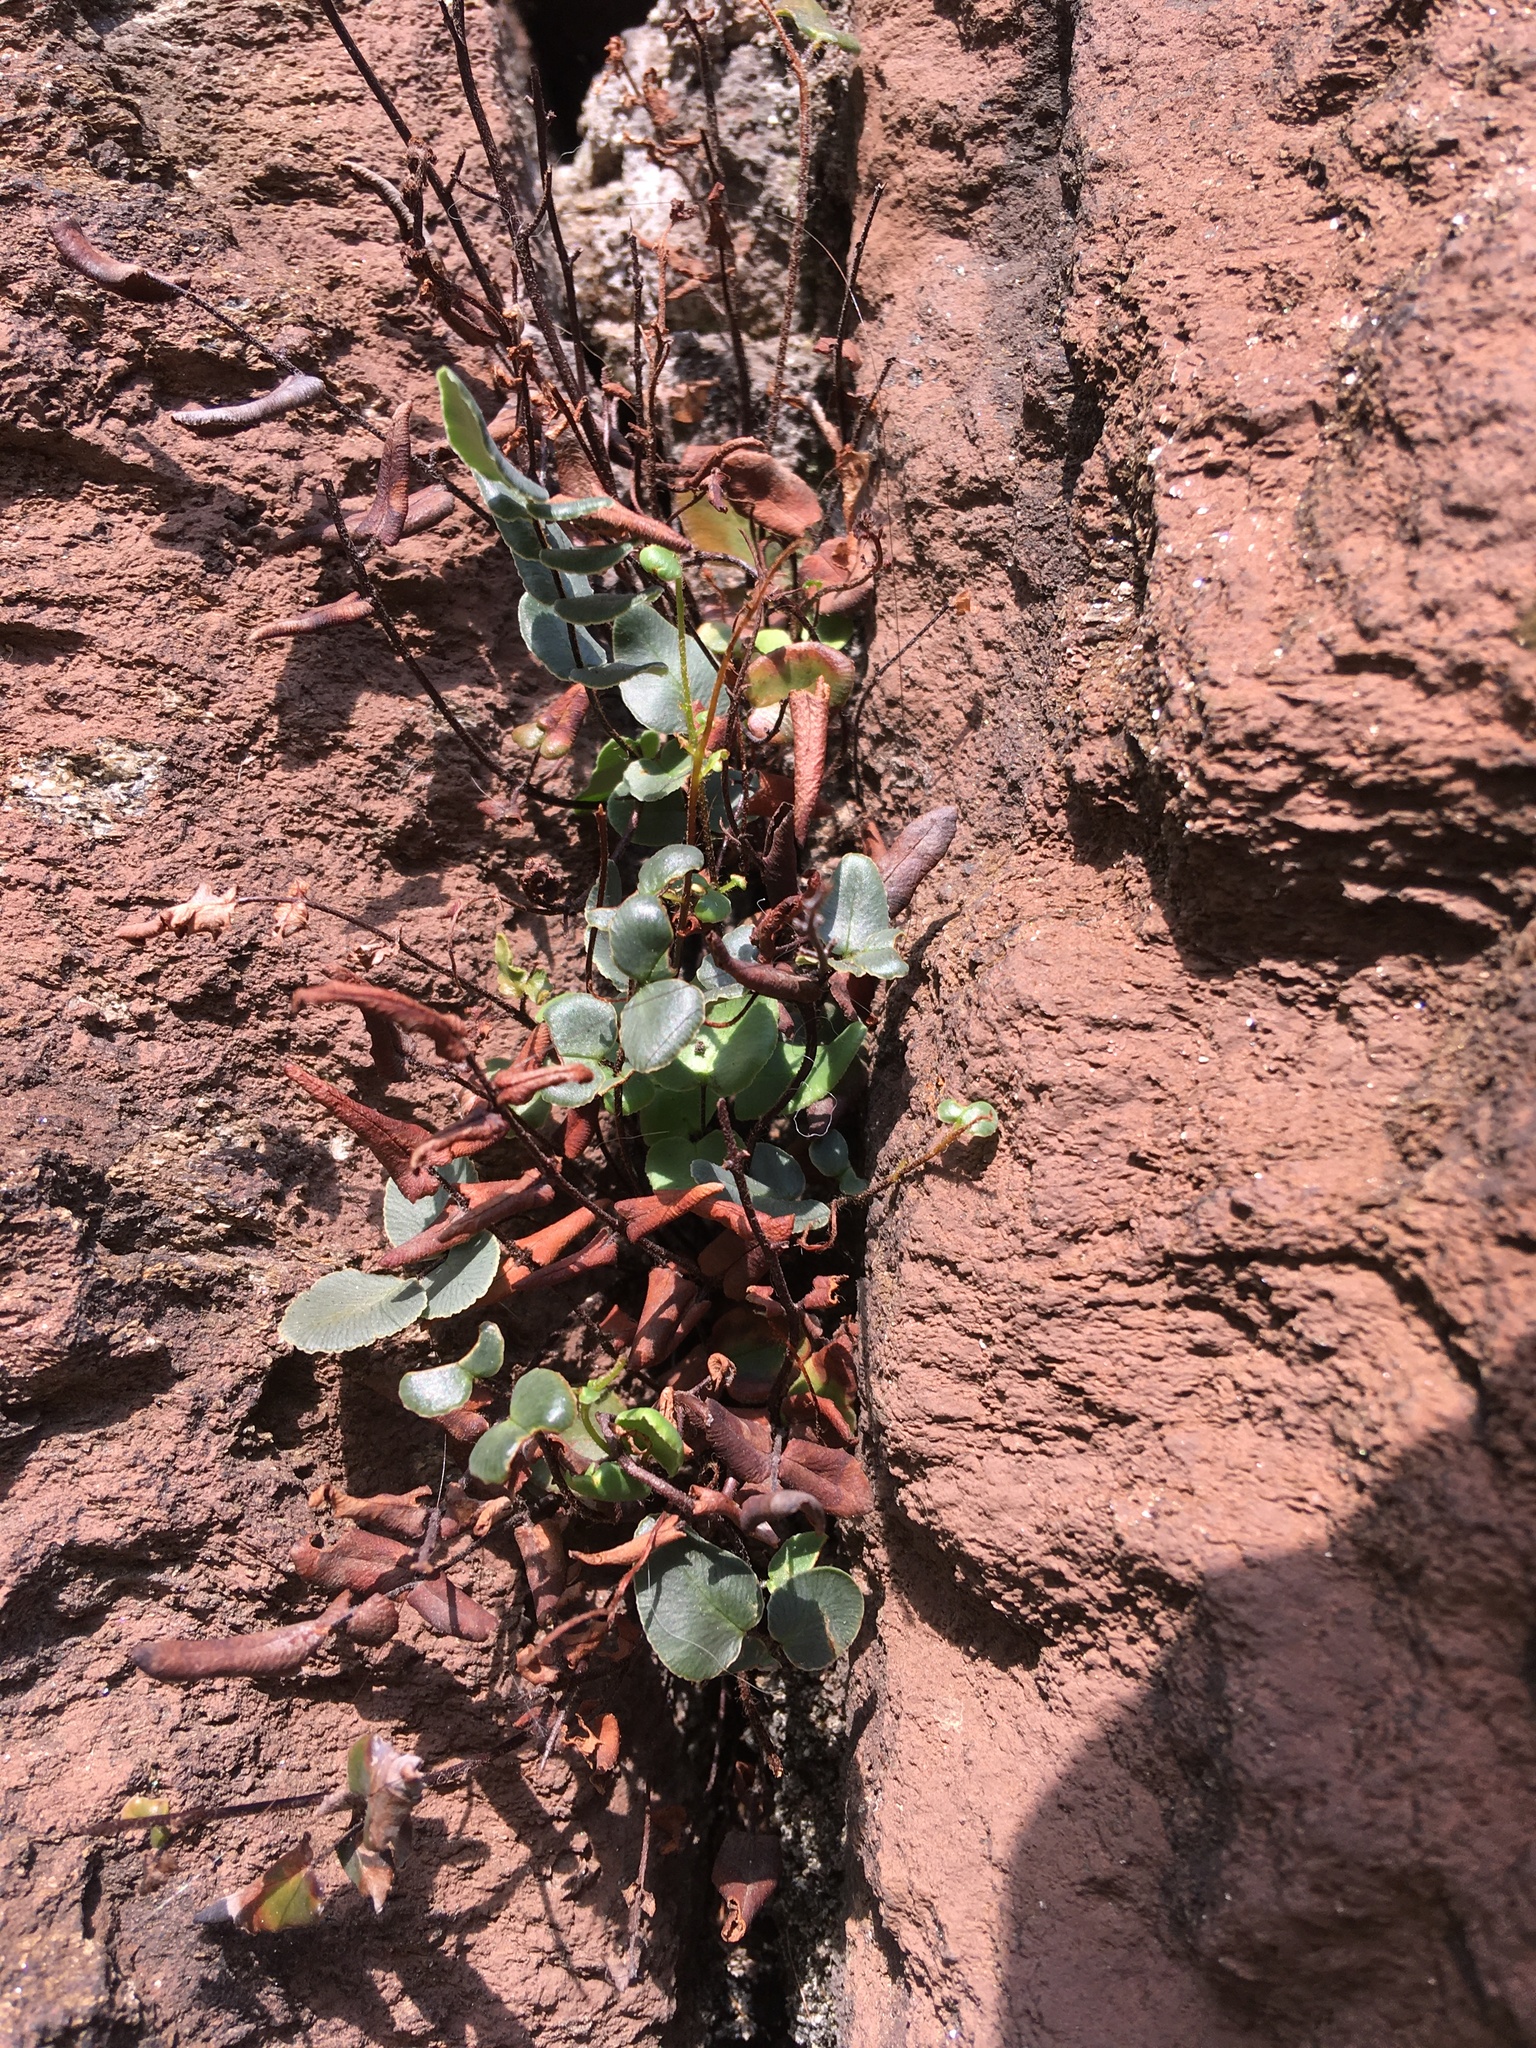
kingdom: Plantae
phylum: Tracheophyta
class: Polypodiopsida
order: Polypodiales
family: Pteridaceae
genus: Pellaea
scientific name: Pellaea atropurpurea
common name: Hairy cliffbrake
